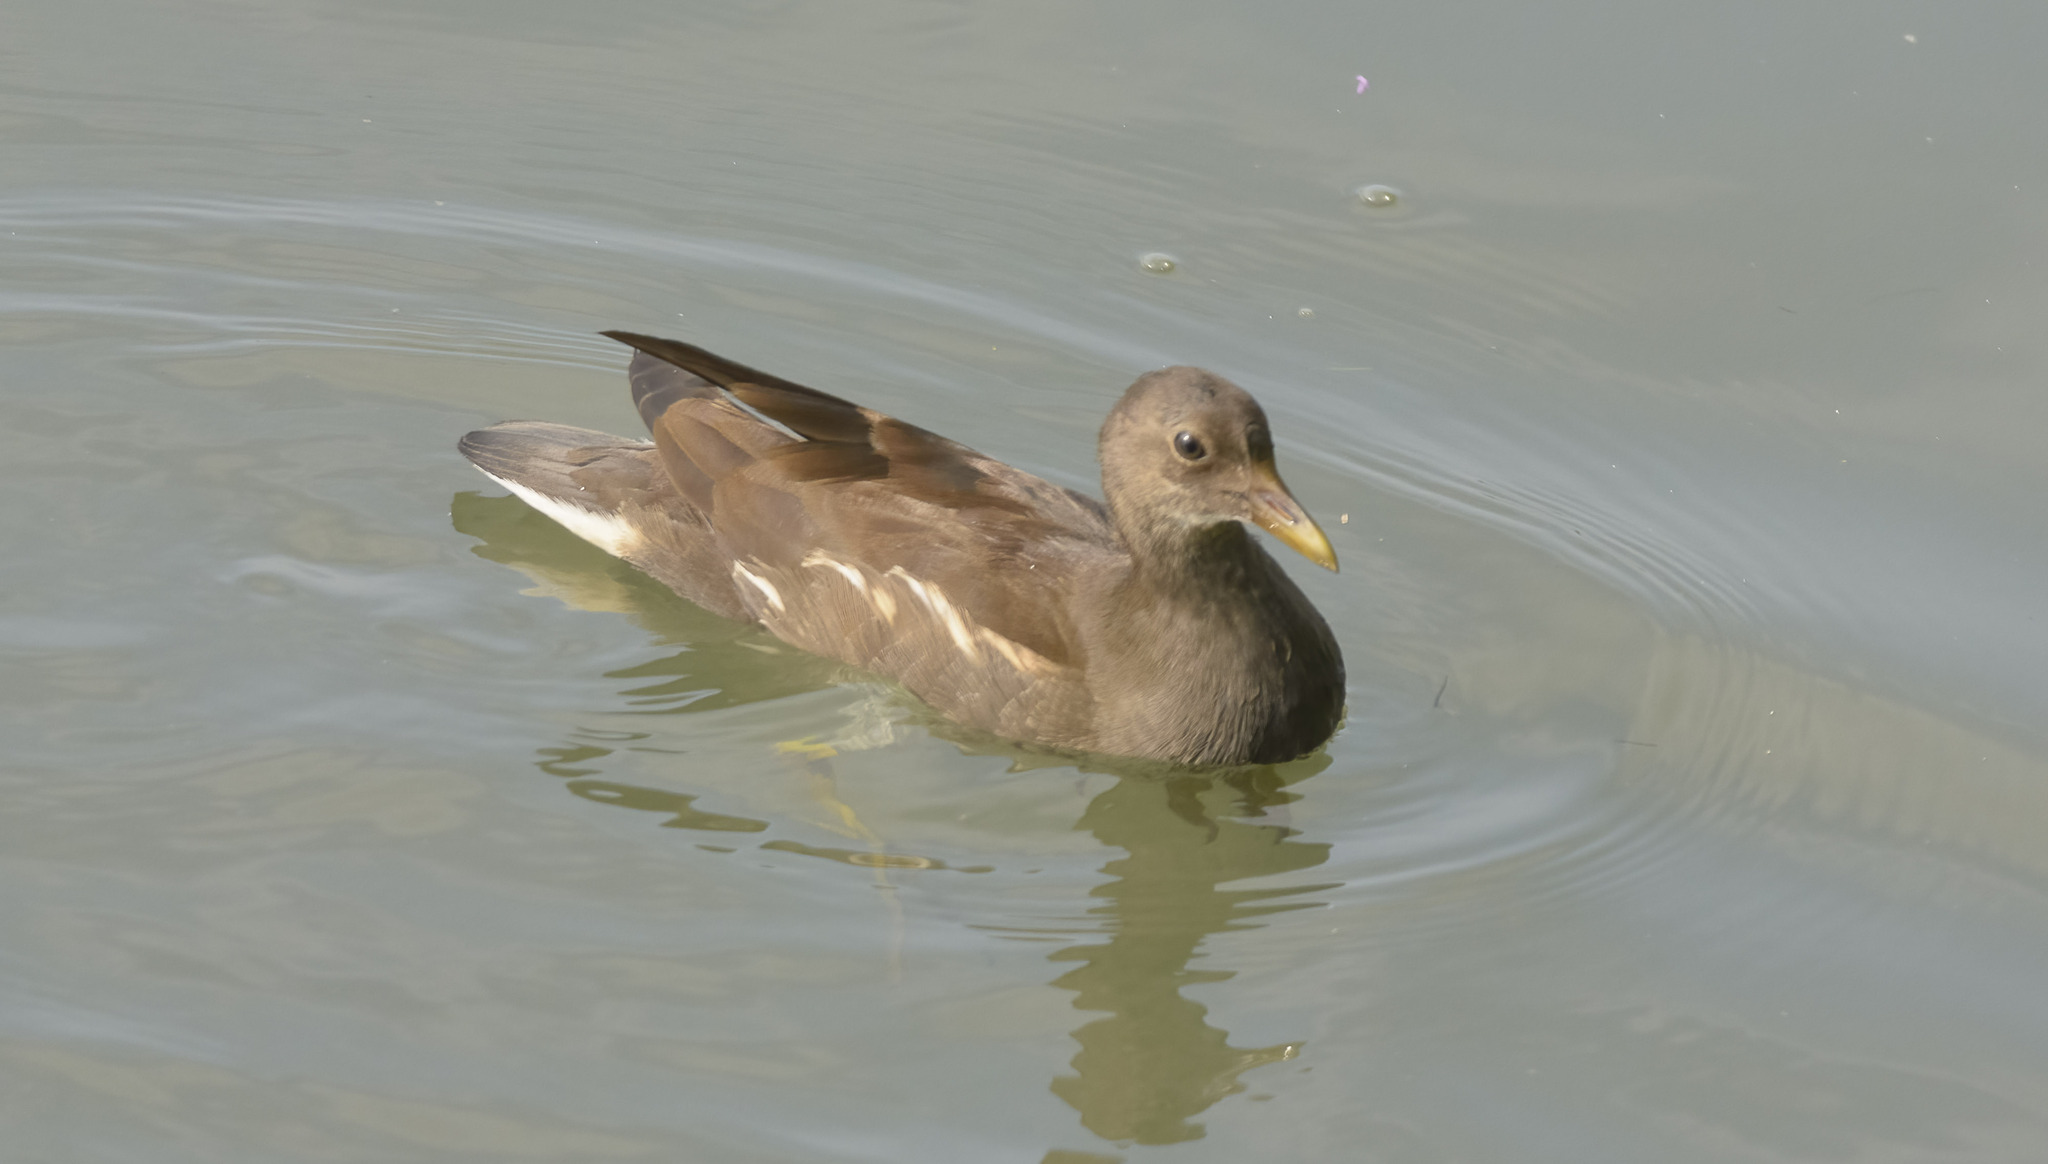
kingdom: Animalia
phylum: Chordata
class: Aves
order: Gruiformes
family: Rallidae
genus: Gallinula
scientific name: Gallinula chloropus
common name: Common moorhen
